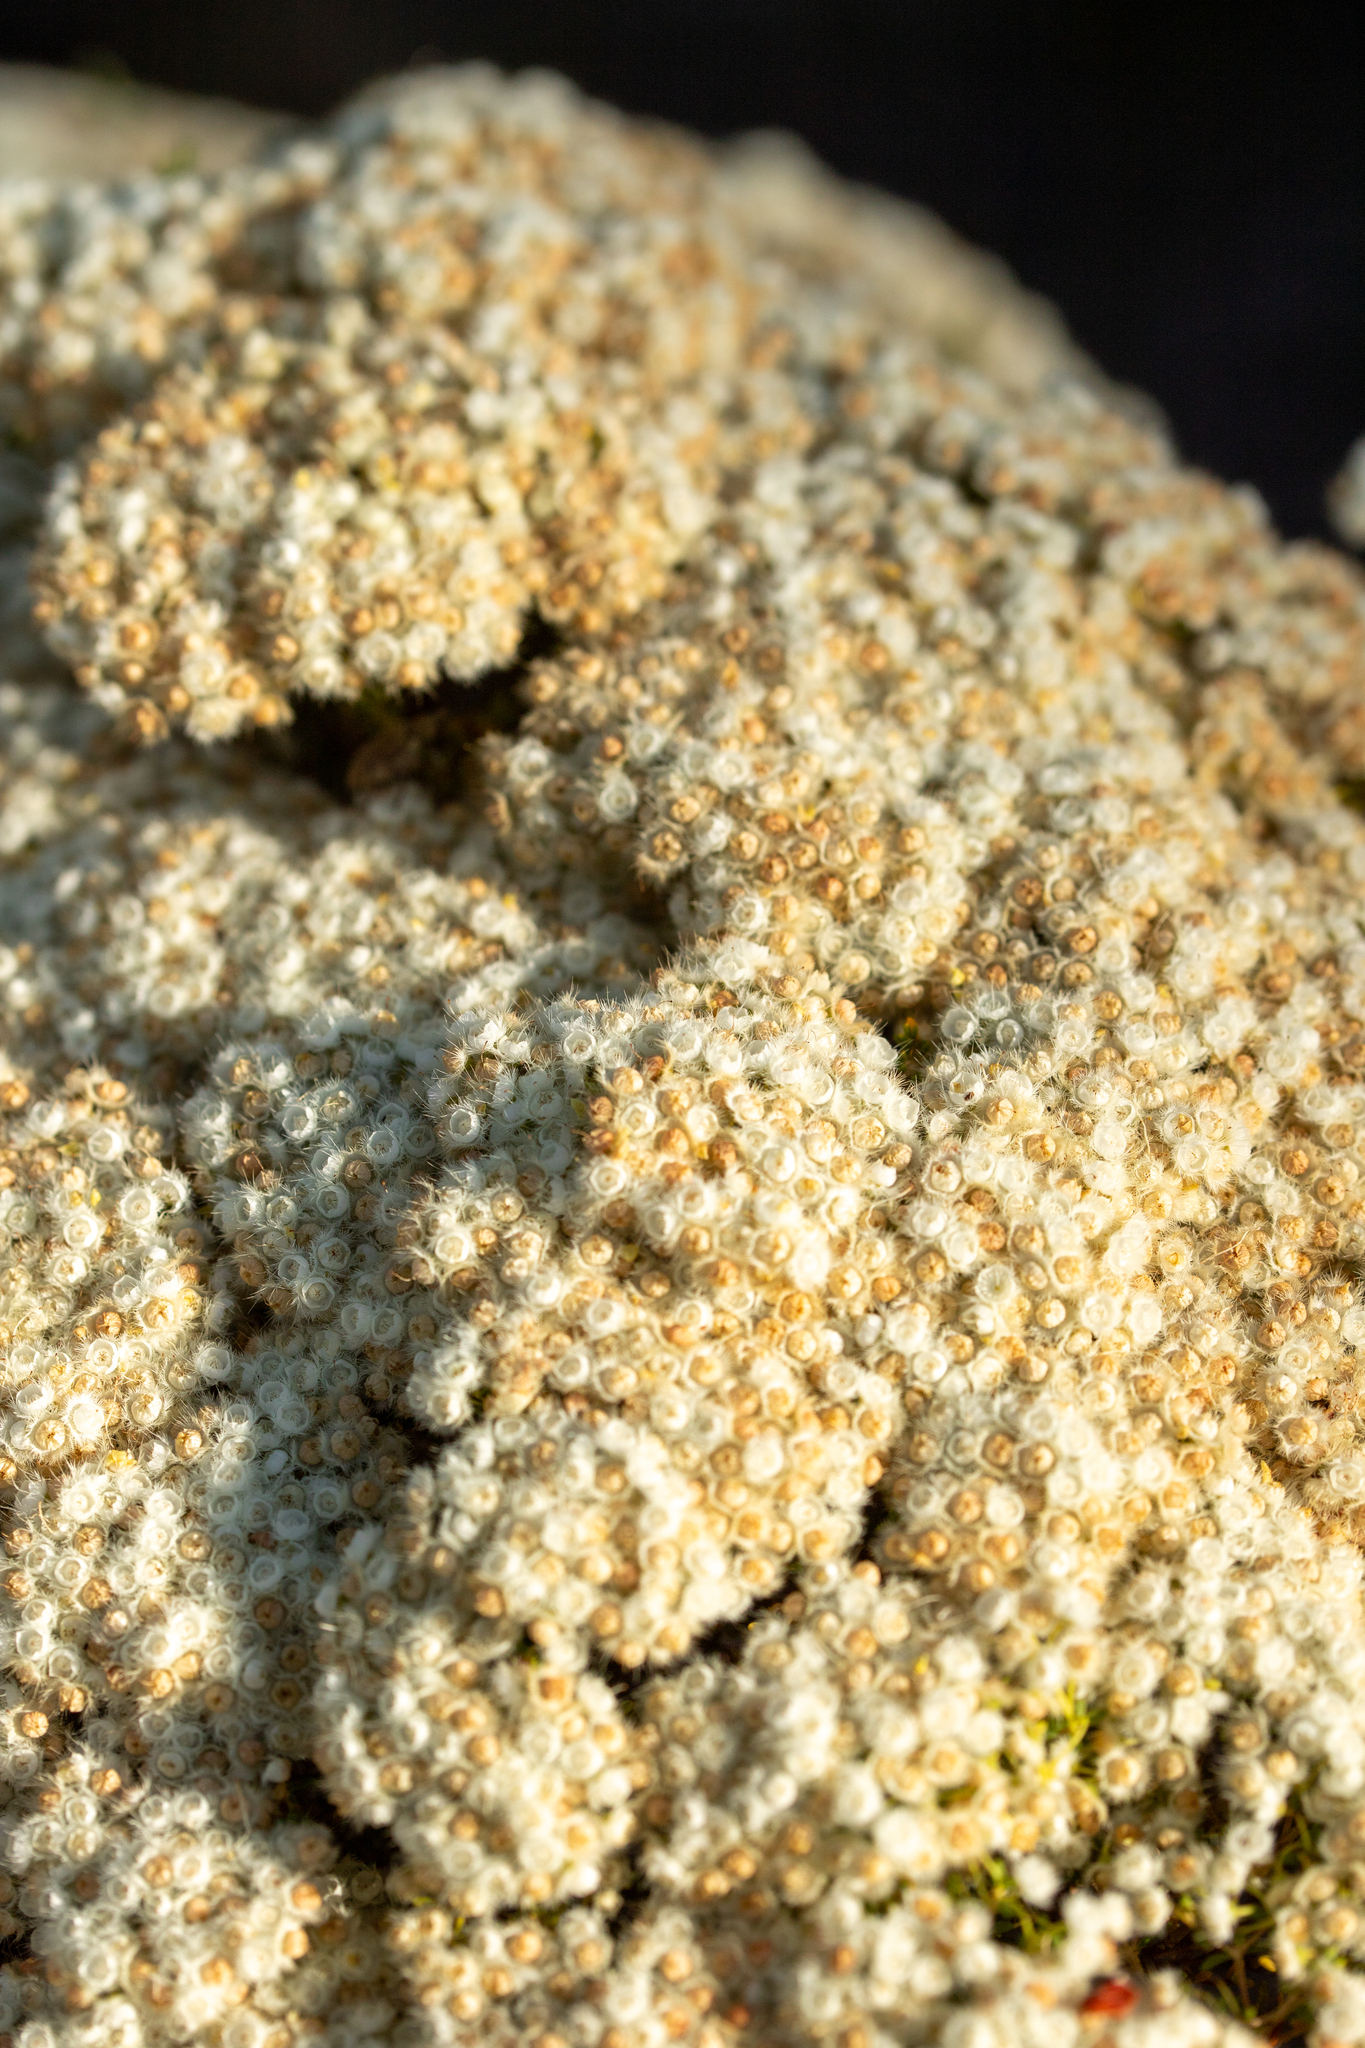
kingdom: Plantae
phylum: Tracheophyta
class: Magnoliopsida
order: Myrtales
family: Myrtaceae
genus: Verticordia
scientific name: Verticordia eriocephala
